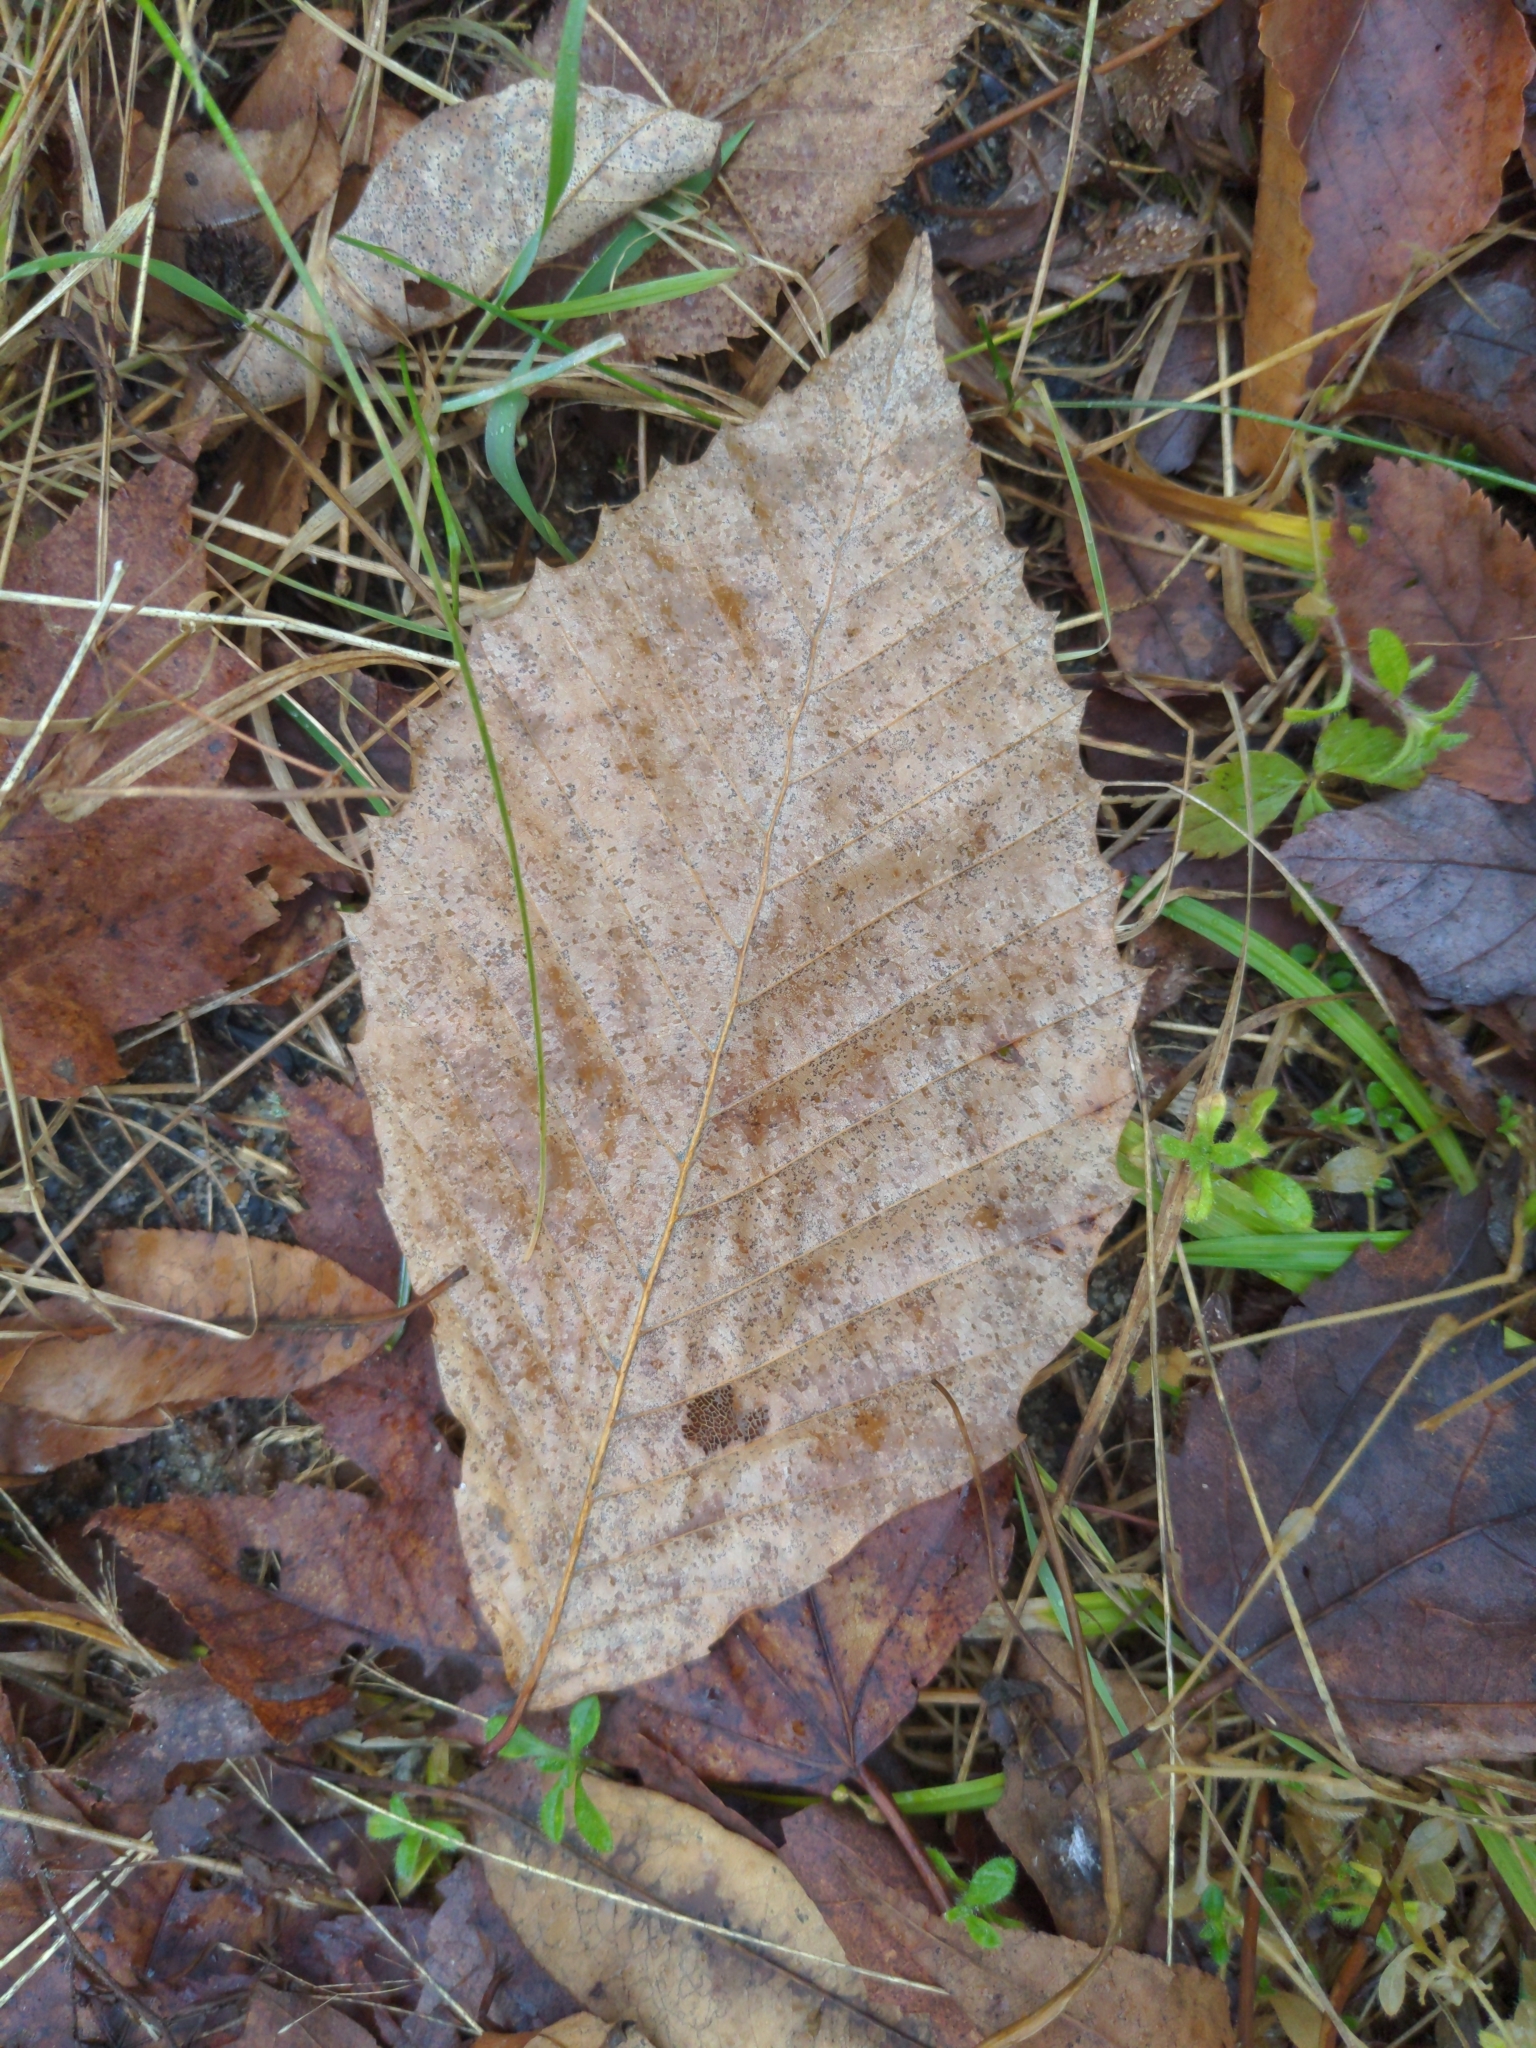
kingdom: Plantae
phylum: Tracheophyta
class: Magnoliopsida
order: Fagales
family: Fagaceae
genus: Fagus
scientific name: Fagus grandifolia
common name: American beech
